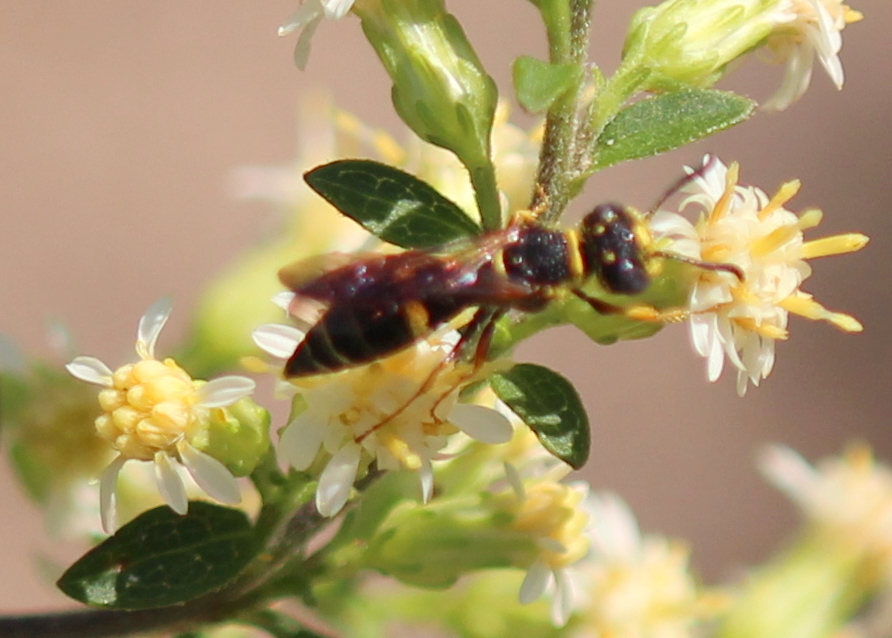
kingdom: Animalia
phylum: Arthropoda
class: Insecta
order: Hymenoptera
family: Crabronidae
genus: Philanthus
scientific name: Philanthus gibbosus
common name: Humped beewolf
